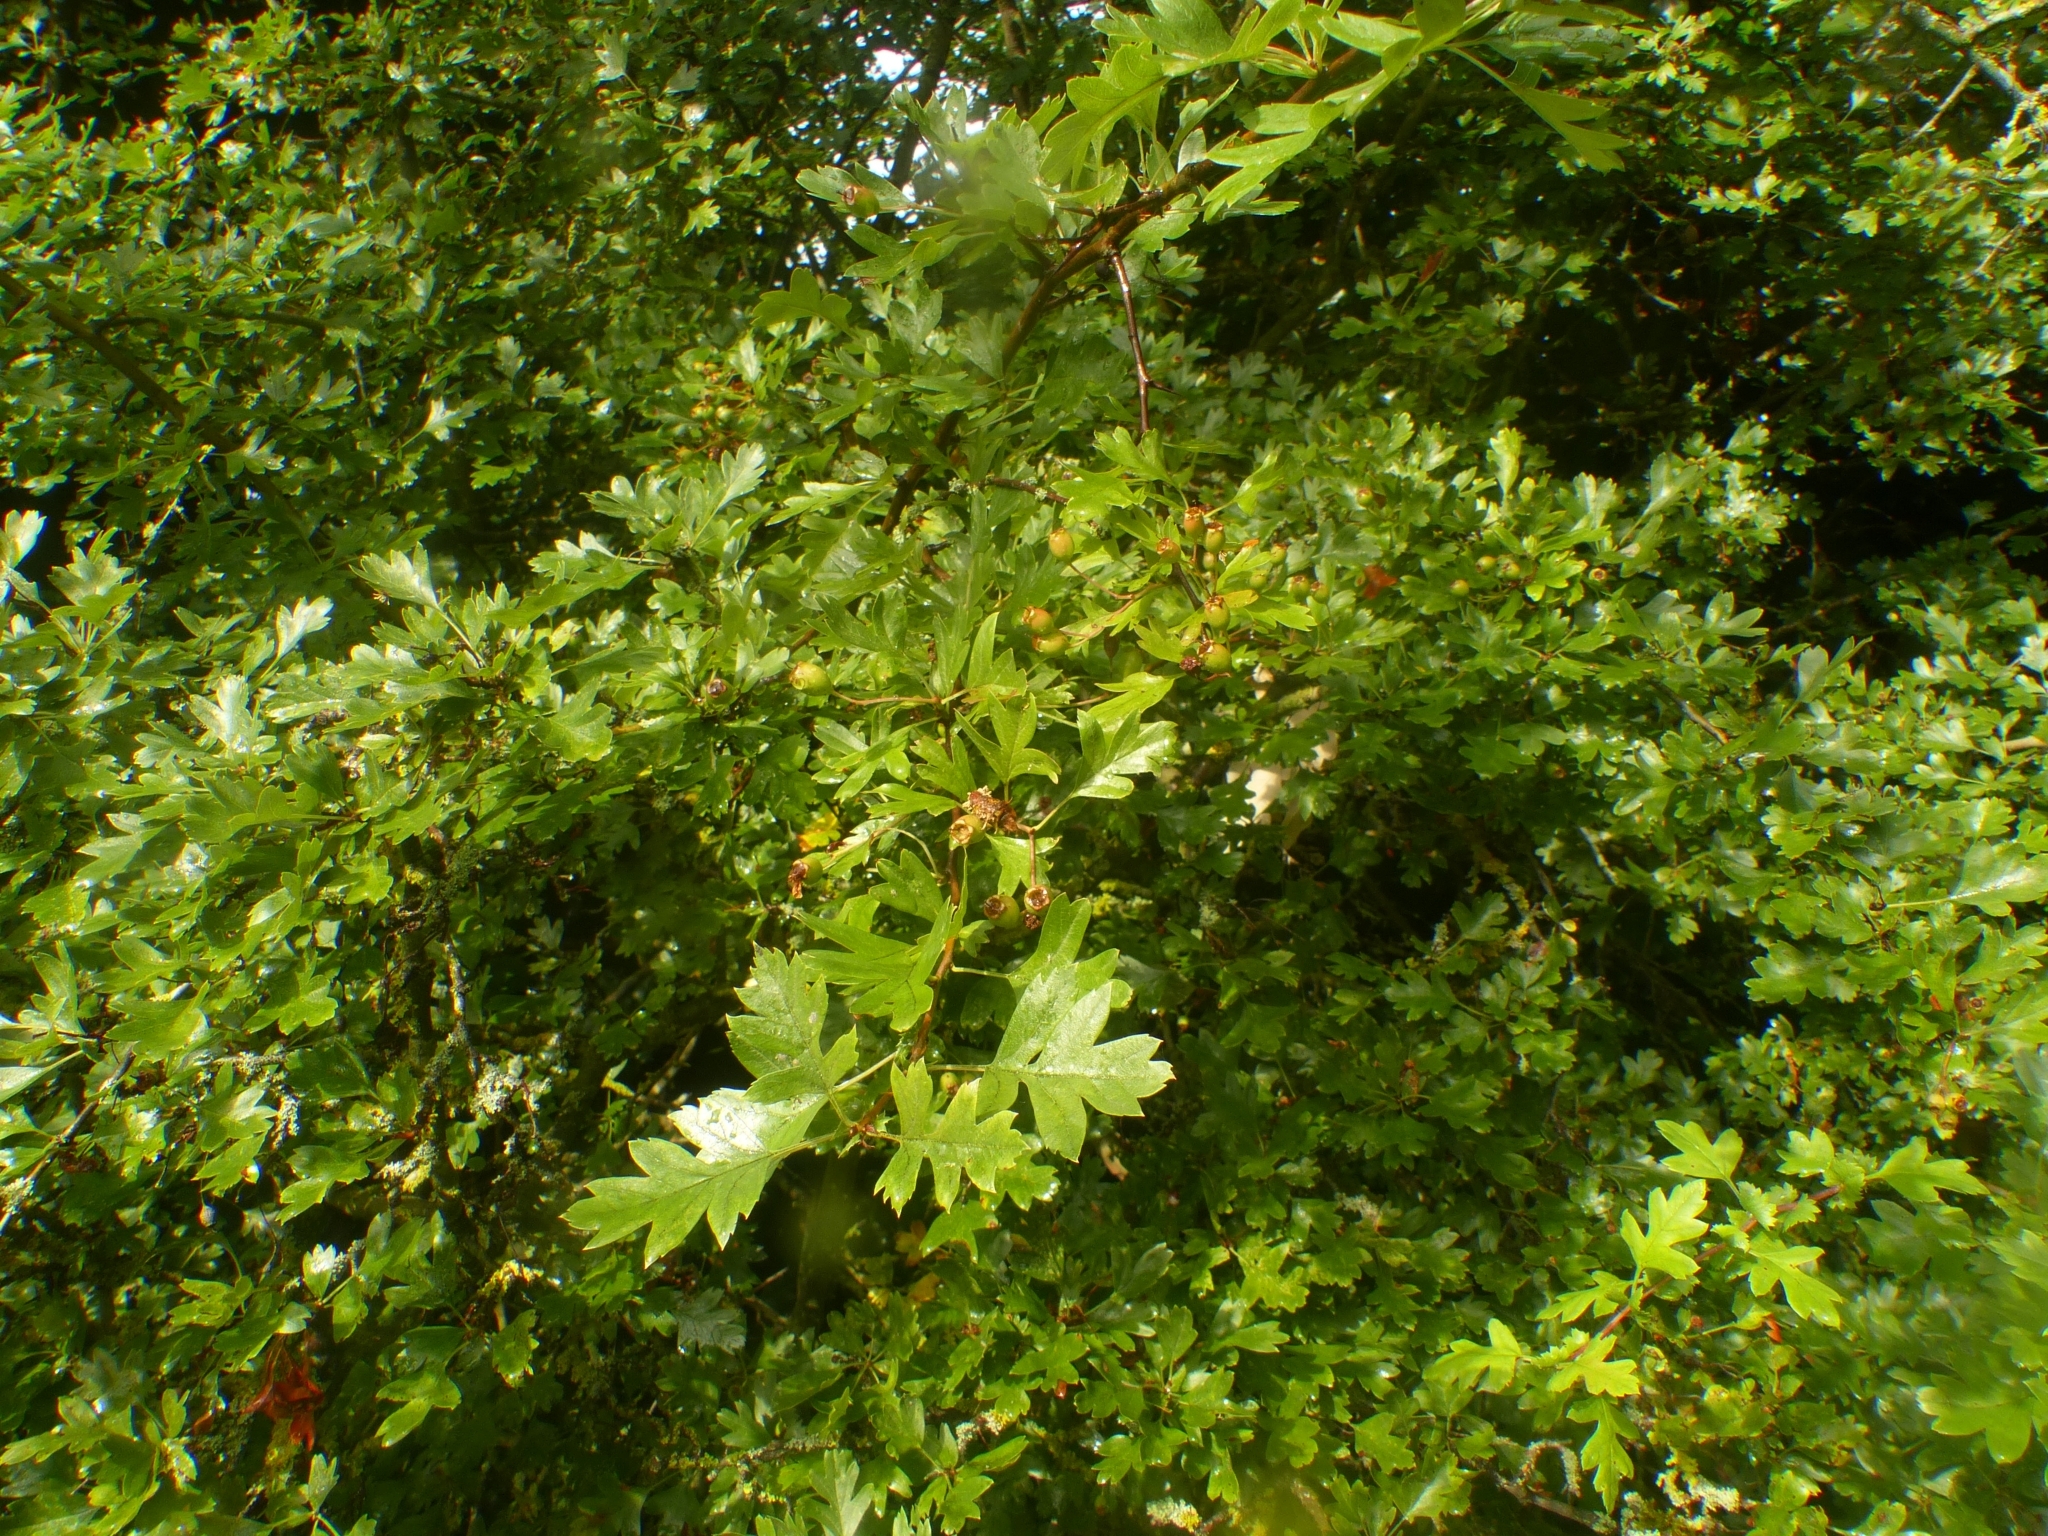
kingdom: Plantae
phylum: Tracheophyta
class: Magnoliopsida
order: Rosales
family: Rosaceae
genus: Crataegus
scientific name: Crataegus monogyna
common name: Hawthorn
